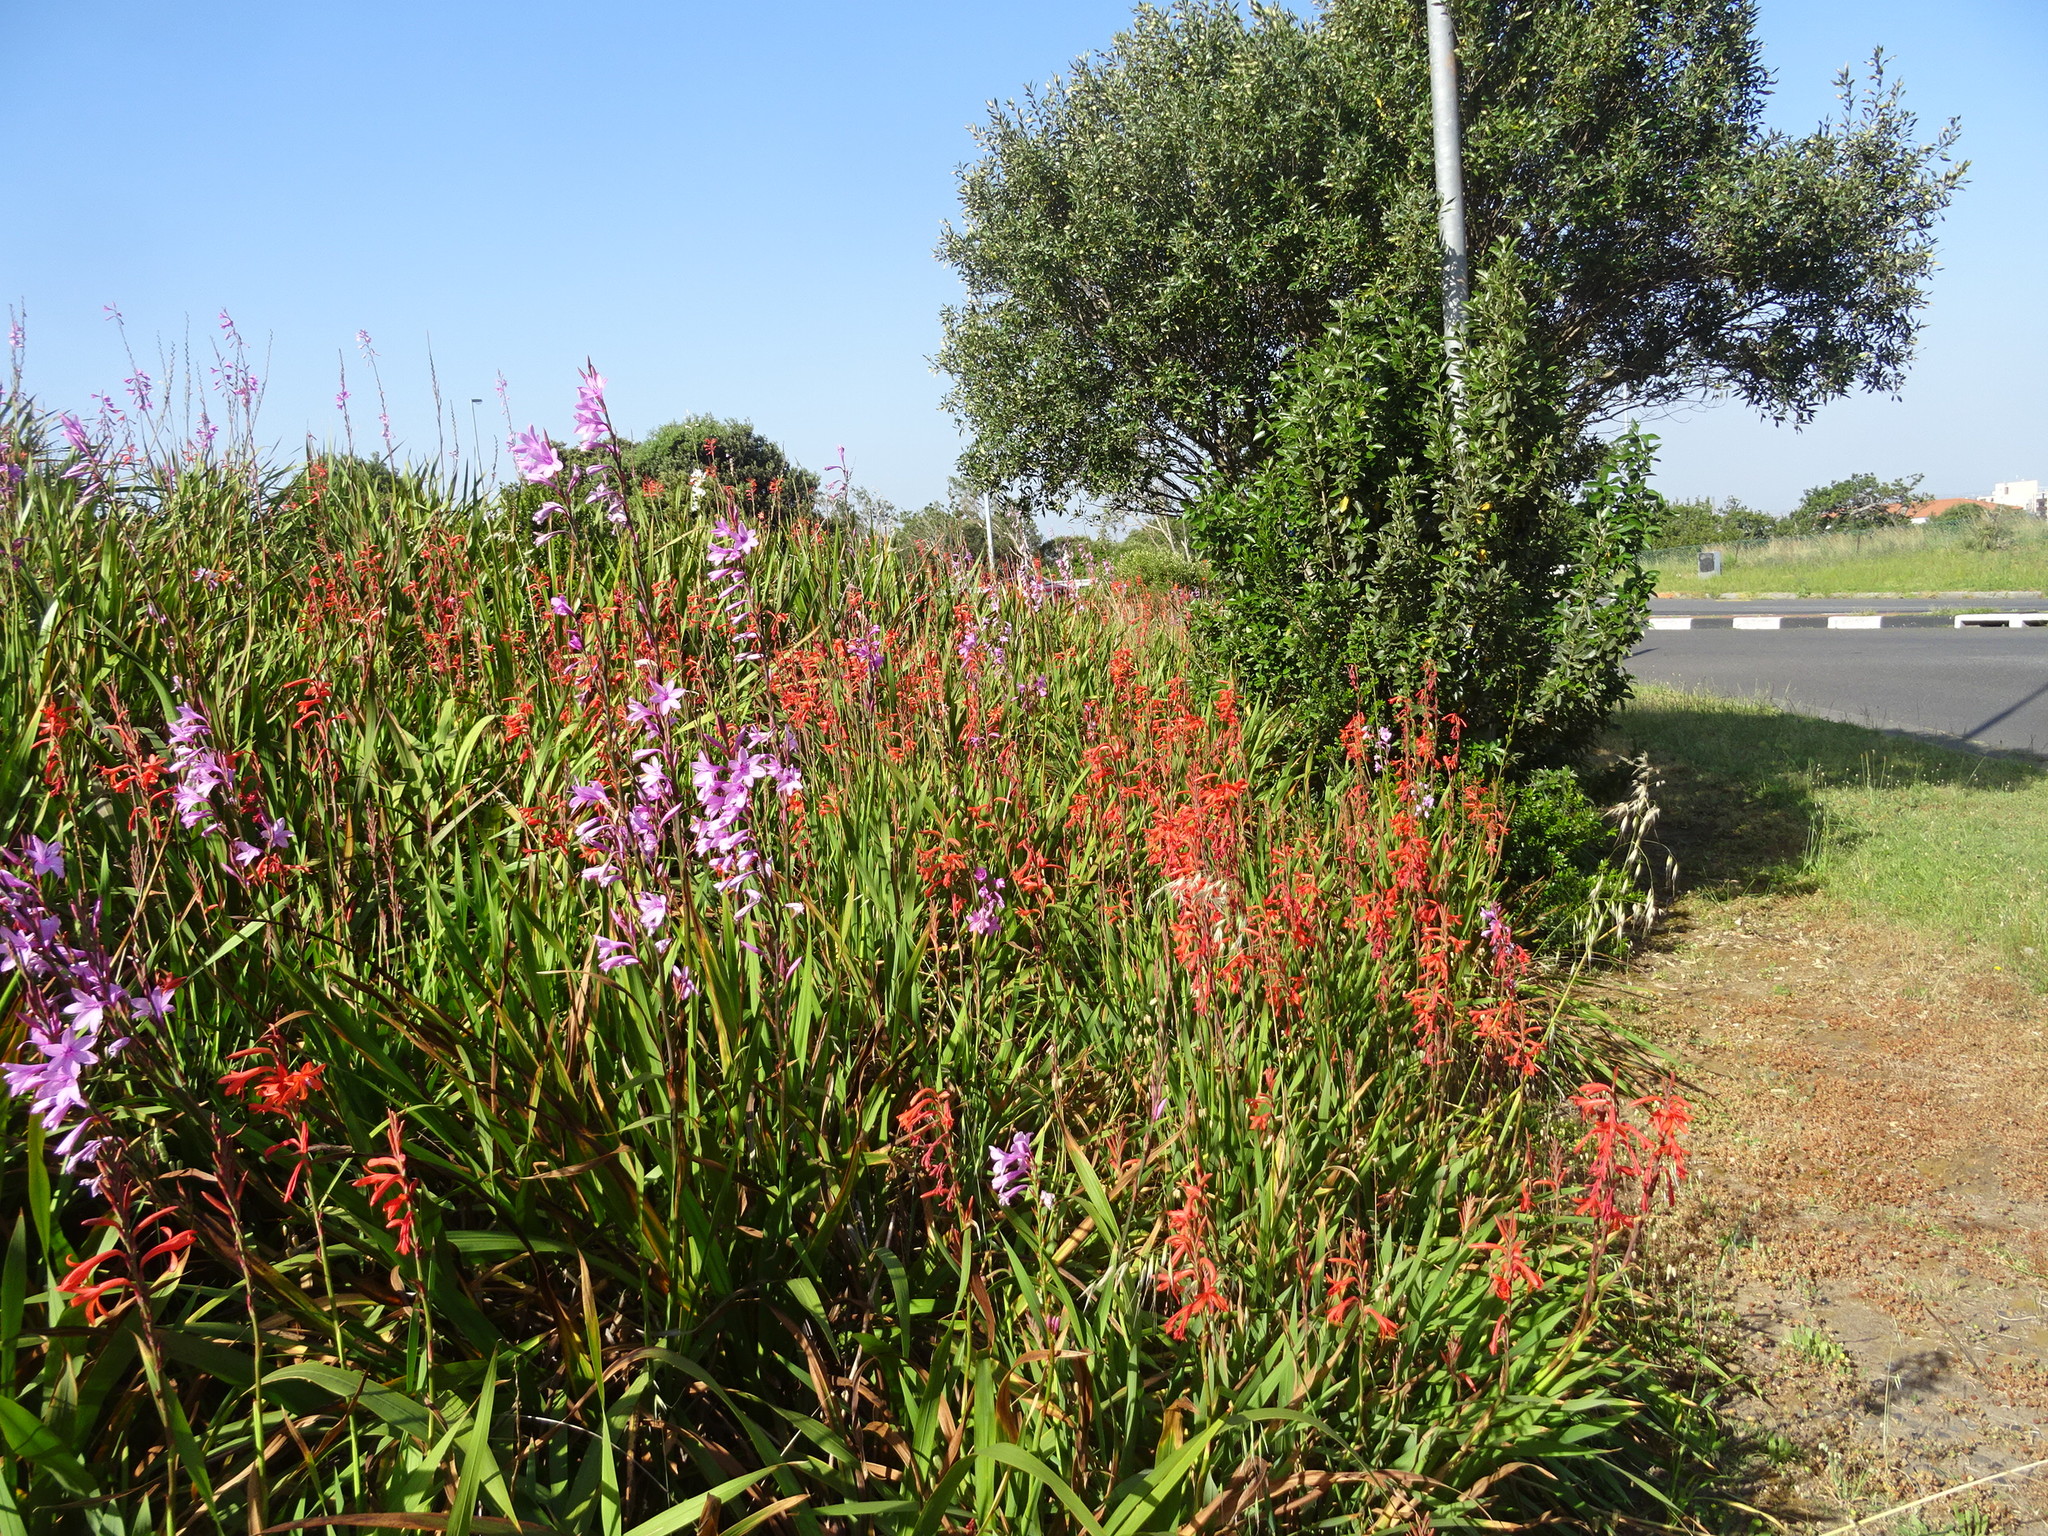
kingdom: Plantae
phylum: Tracheophyta
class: Liliopsida
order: Asparagales
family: Iridaceae
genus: Watsonia
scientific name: Watsonia meriana
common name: Bulbil bugle-lily
